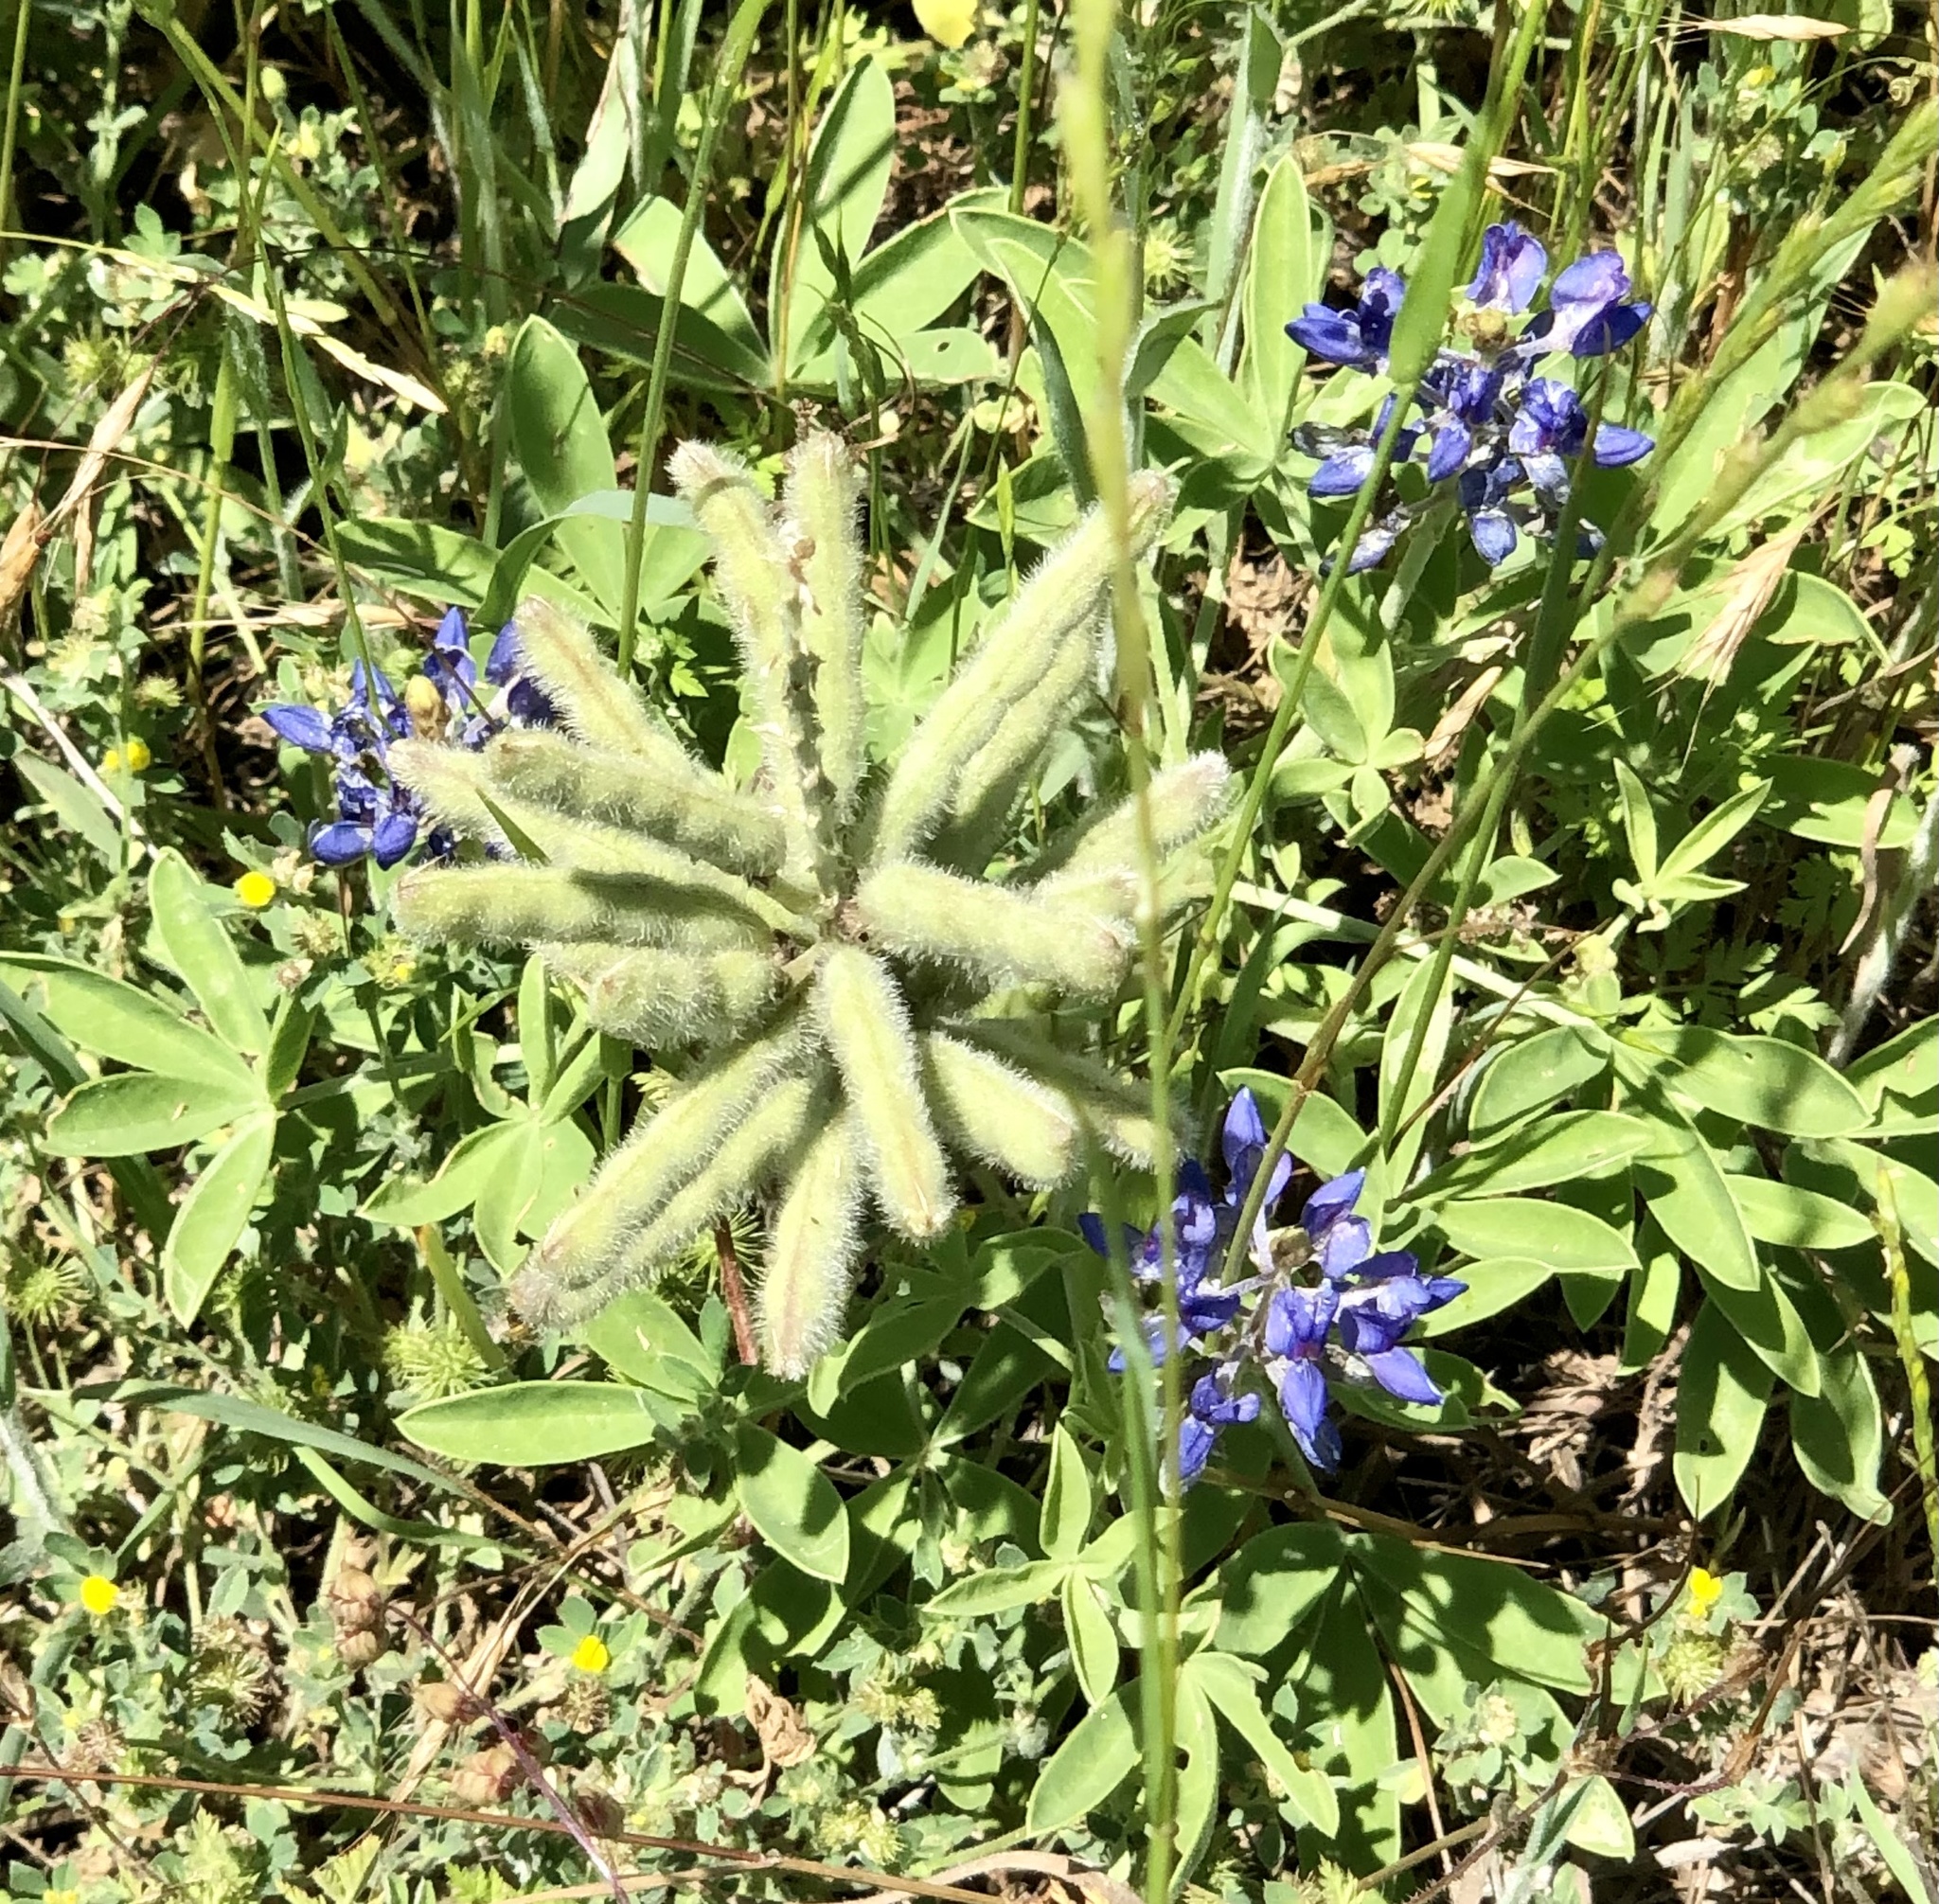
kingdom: Plantae
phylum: Tracheophyta
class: Magnoliopsida
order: Fabales
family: Fabaceae
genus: Lupinus
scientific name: Lupinus texensis
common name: Texas bluebonnet
